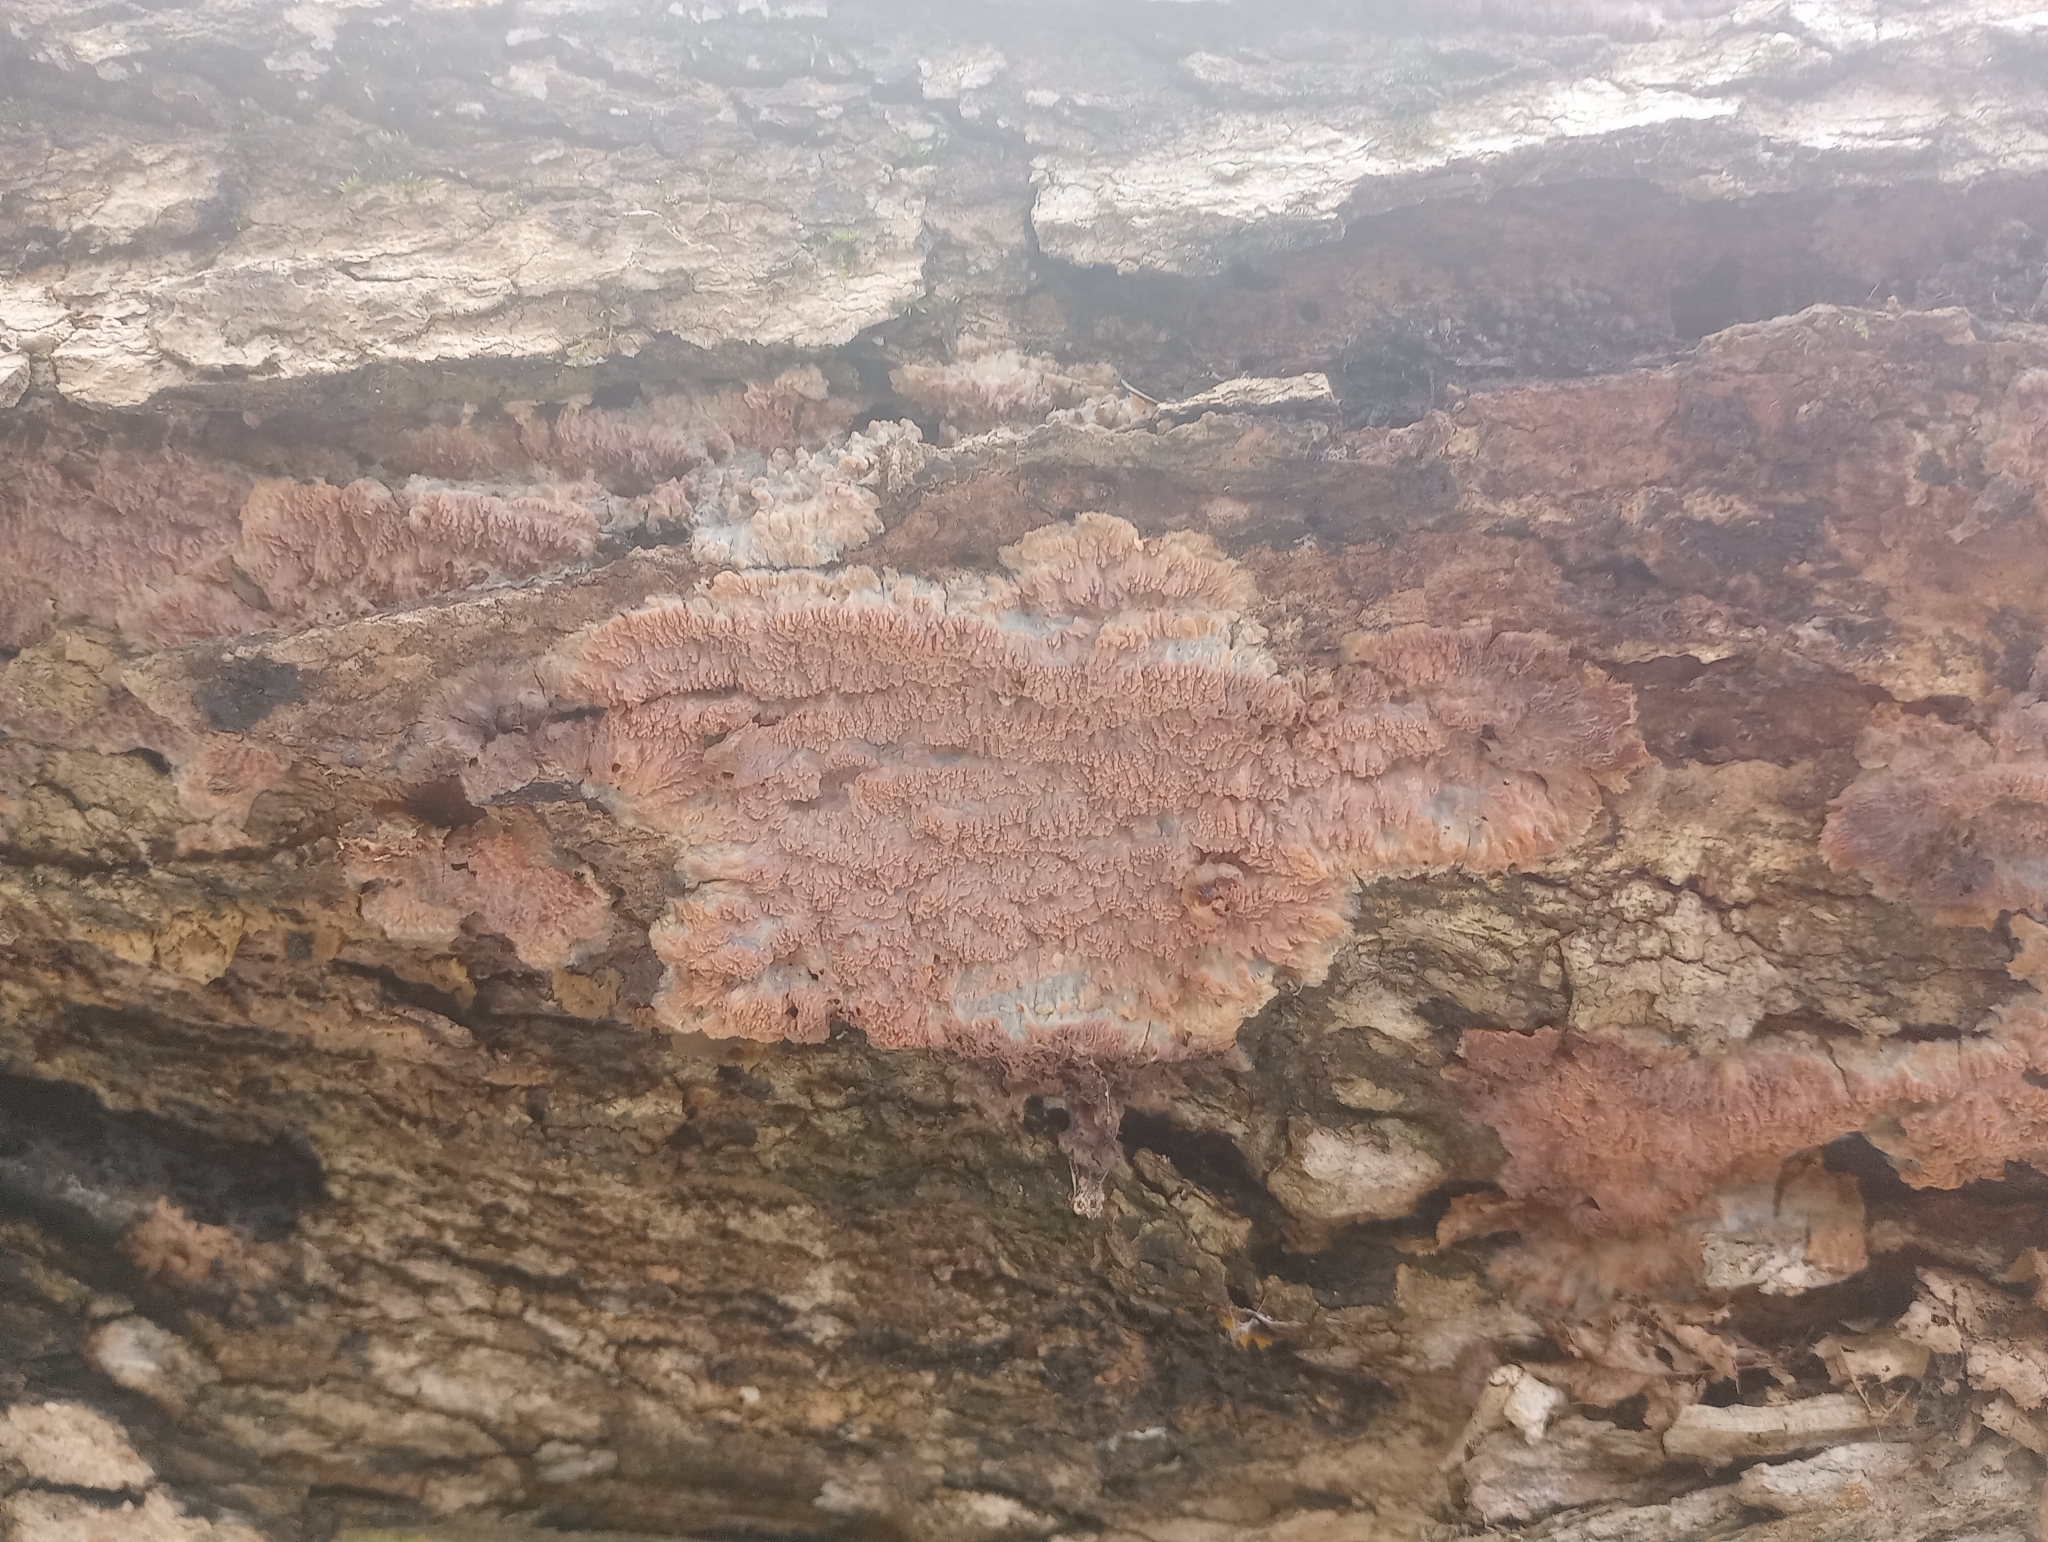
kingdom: Fungi
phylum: Basidiomycota
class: Agaricomycetes
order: Polyporales
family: Meruliaceae
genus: Phlebia
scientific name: Phlebia radiata
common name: Wrinkled crust
